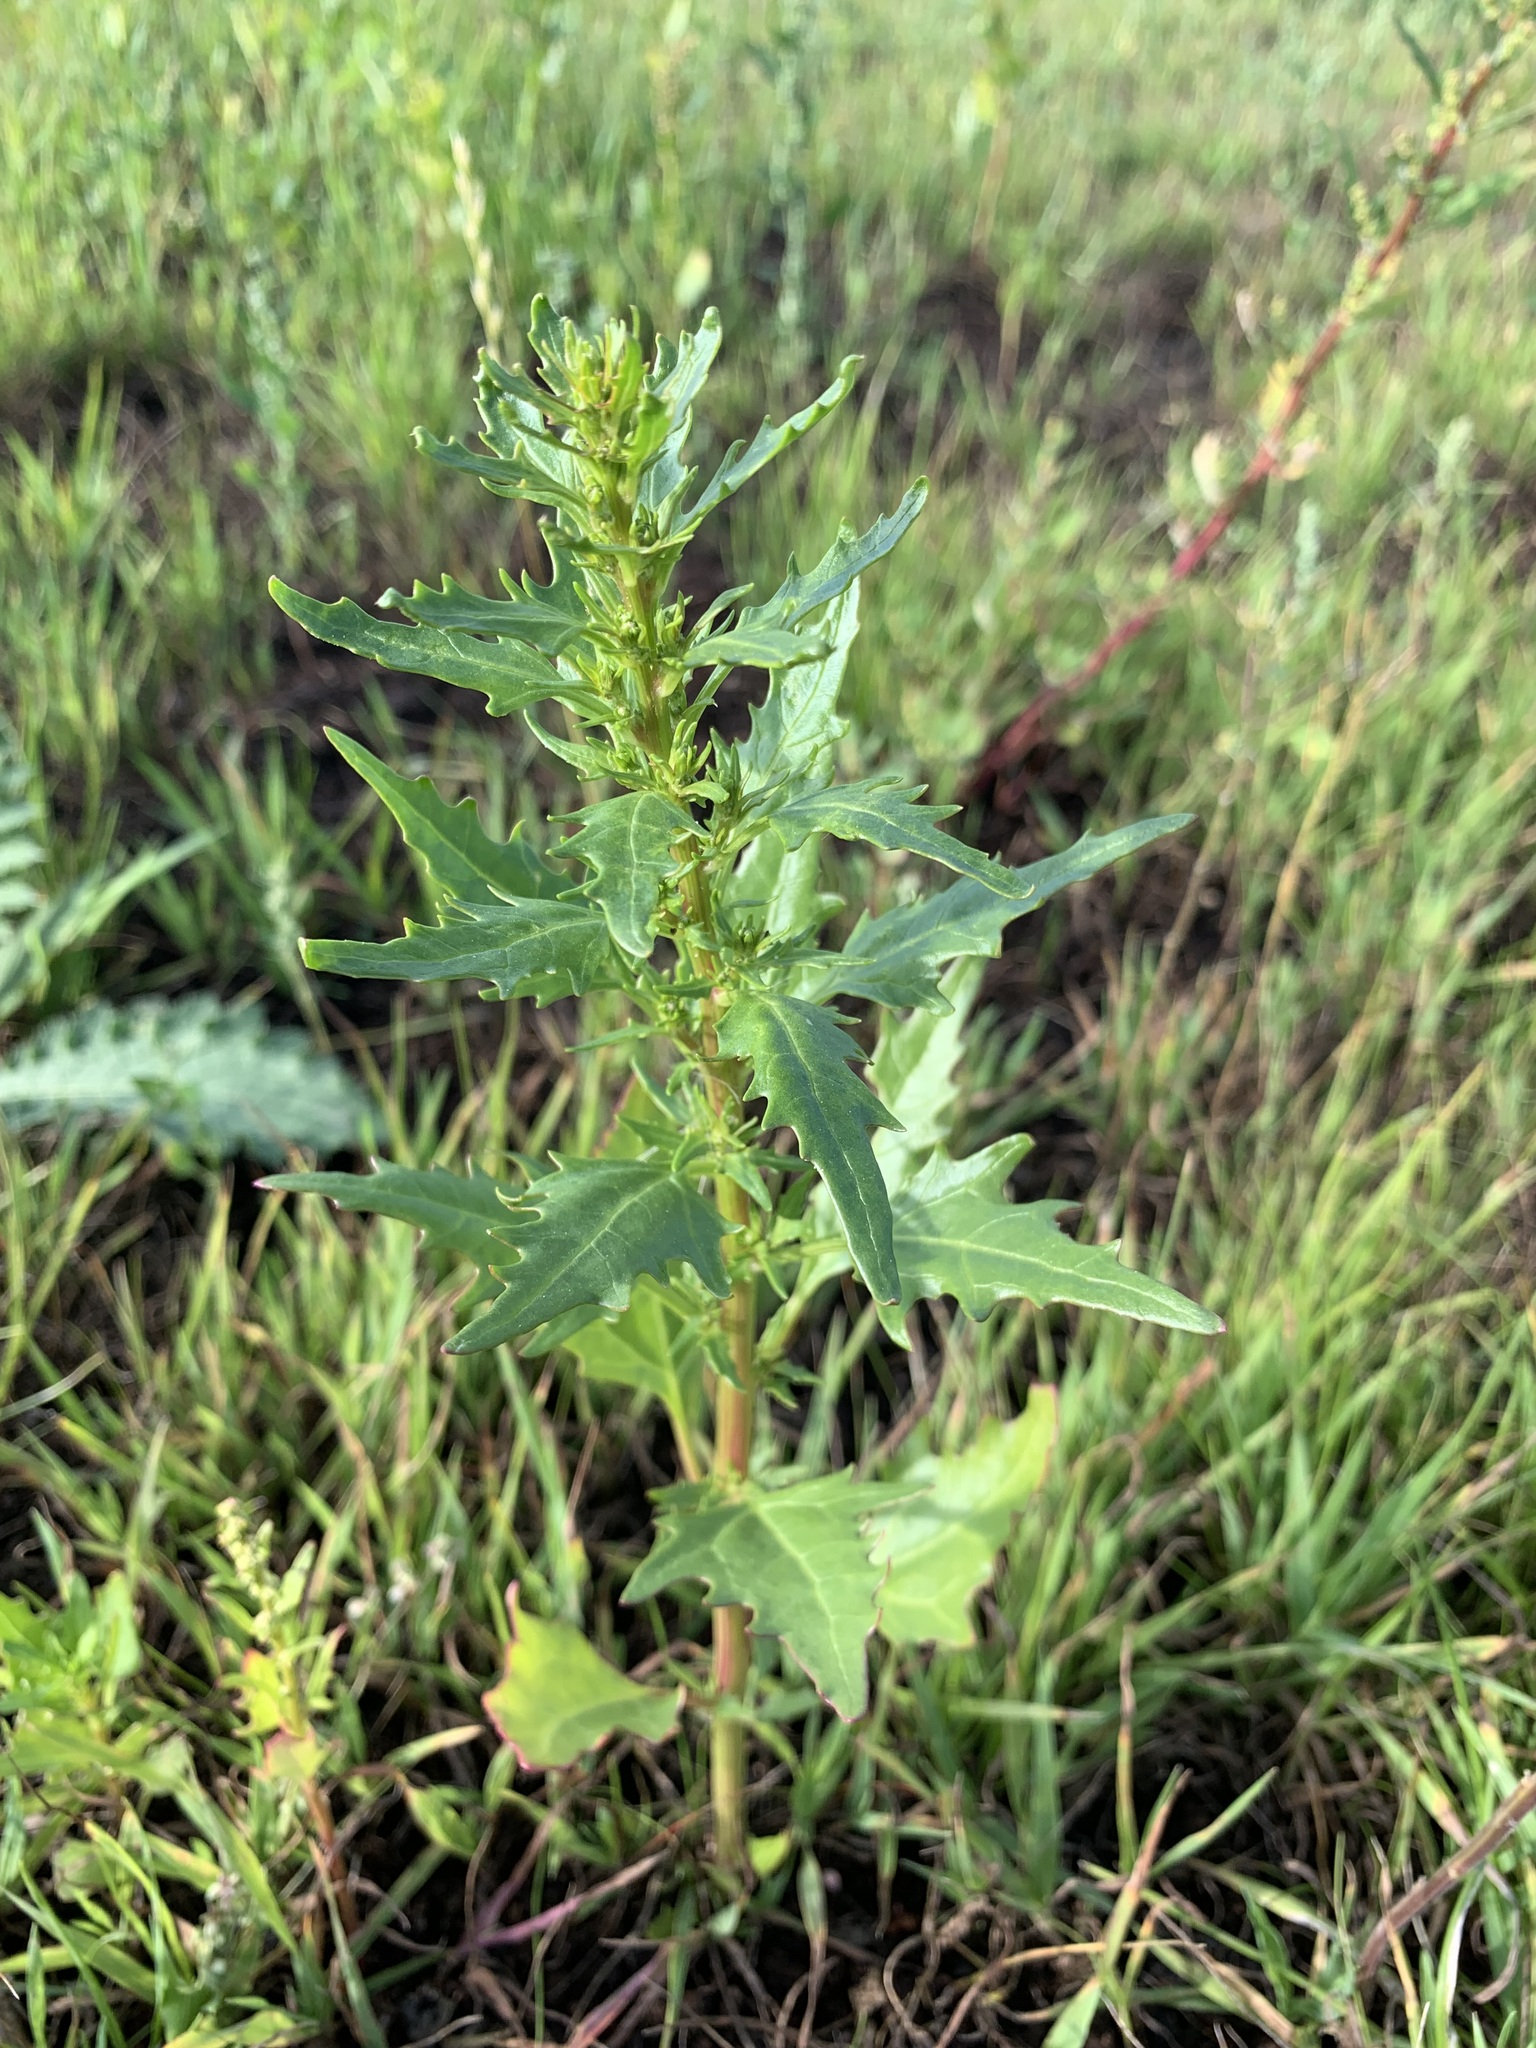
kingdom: Plantae
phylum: Tracheophyta
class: Magnoliopsida
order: Caryophyllales
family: Amaranthaceae
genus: Oxybasis
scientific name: Oxybasis rubra
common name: Red goosefoot
